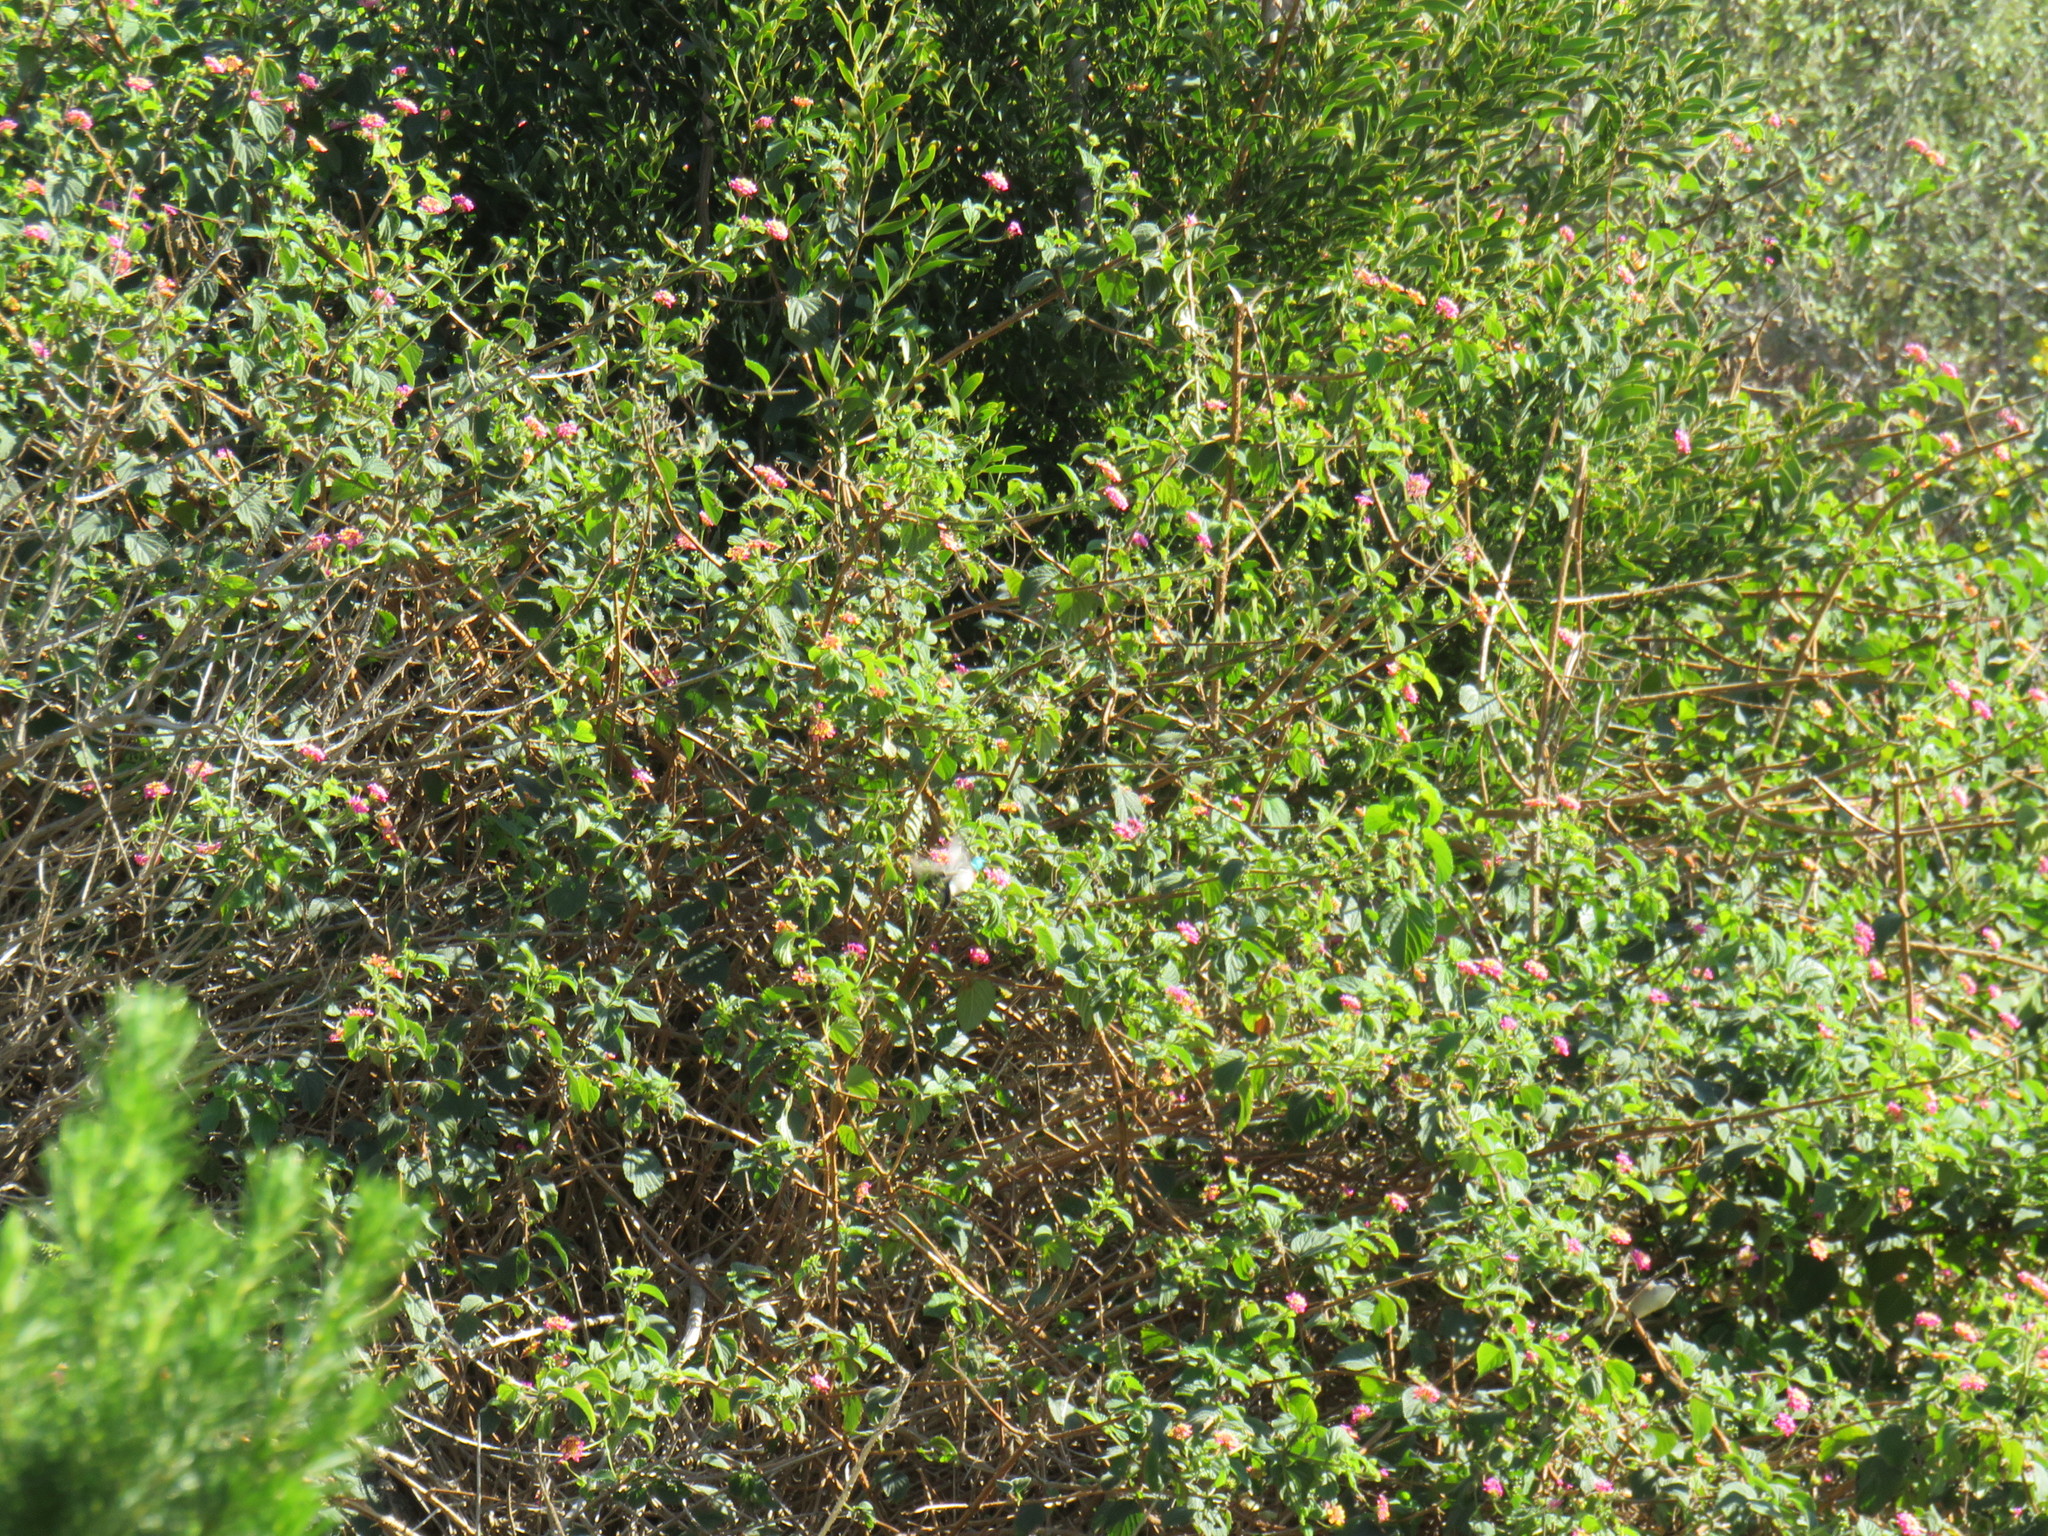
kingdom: Plantae
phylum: Tracheophyta
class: Magnoliopsida
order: Lamiales
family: Verbenaceae
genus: Lantana
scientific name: Lantana camara
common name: Lantana
